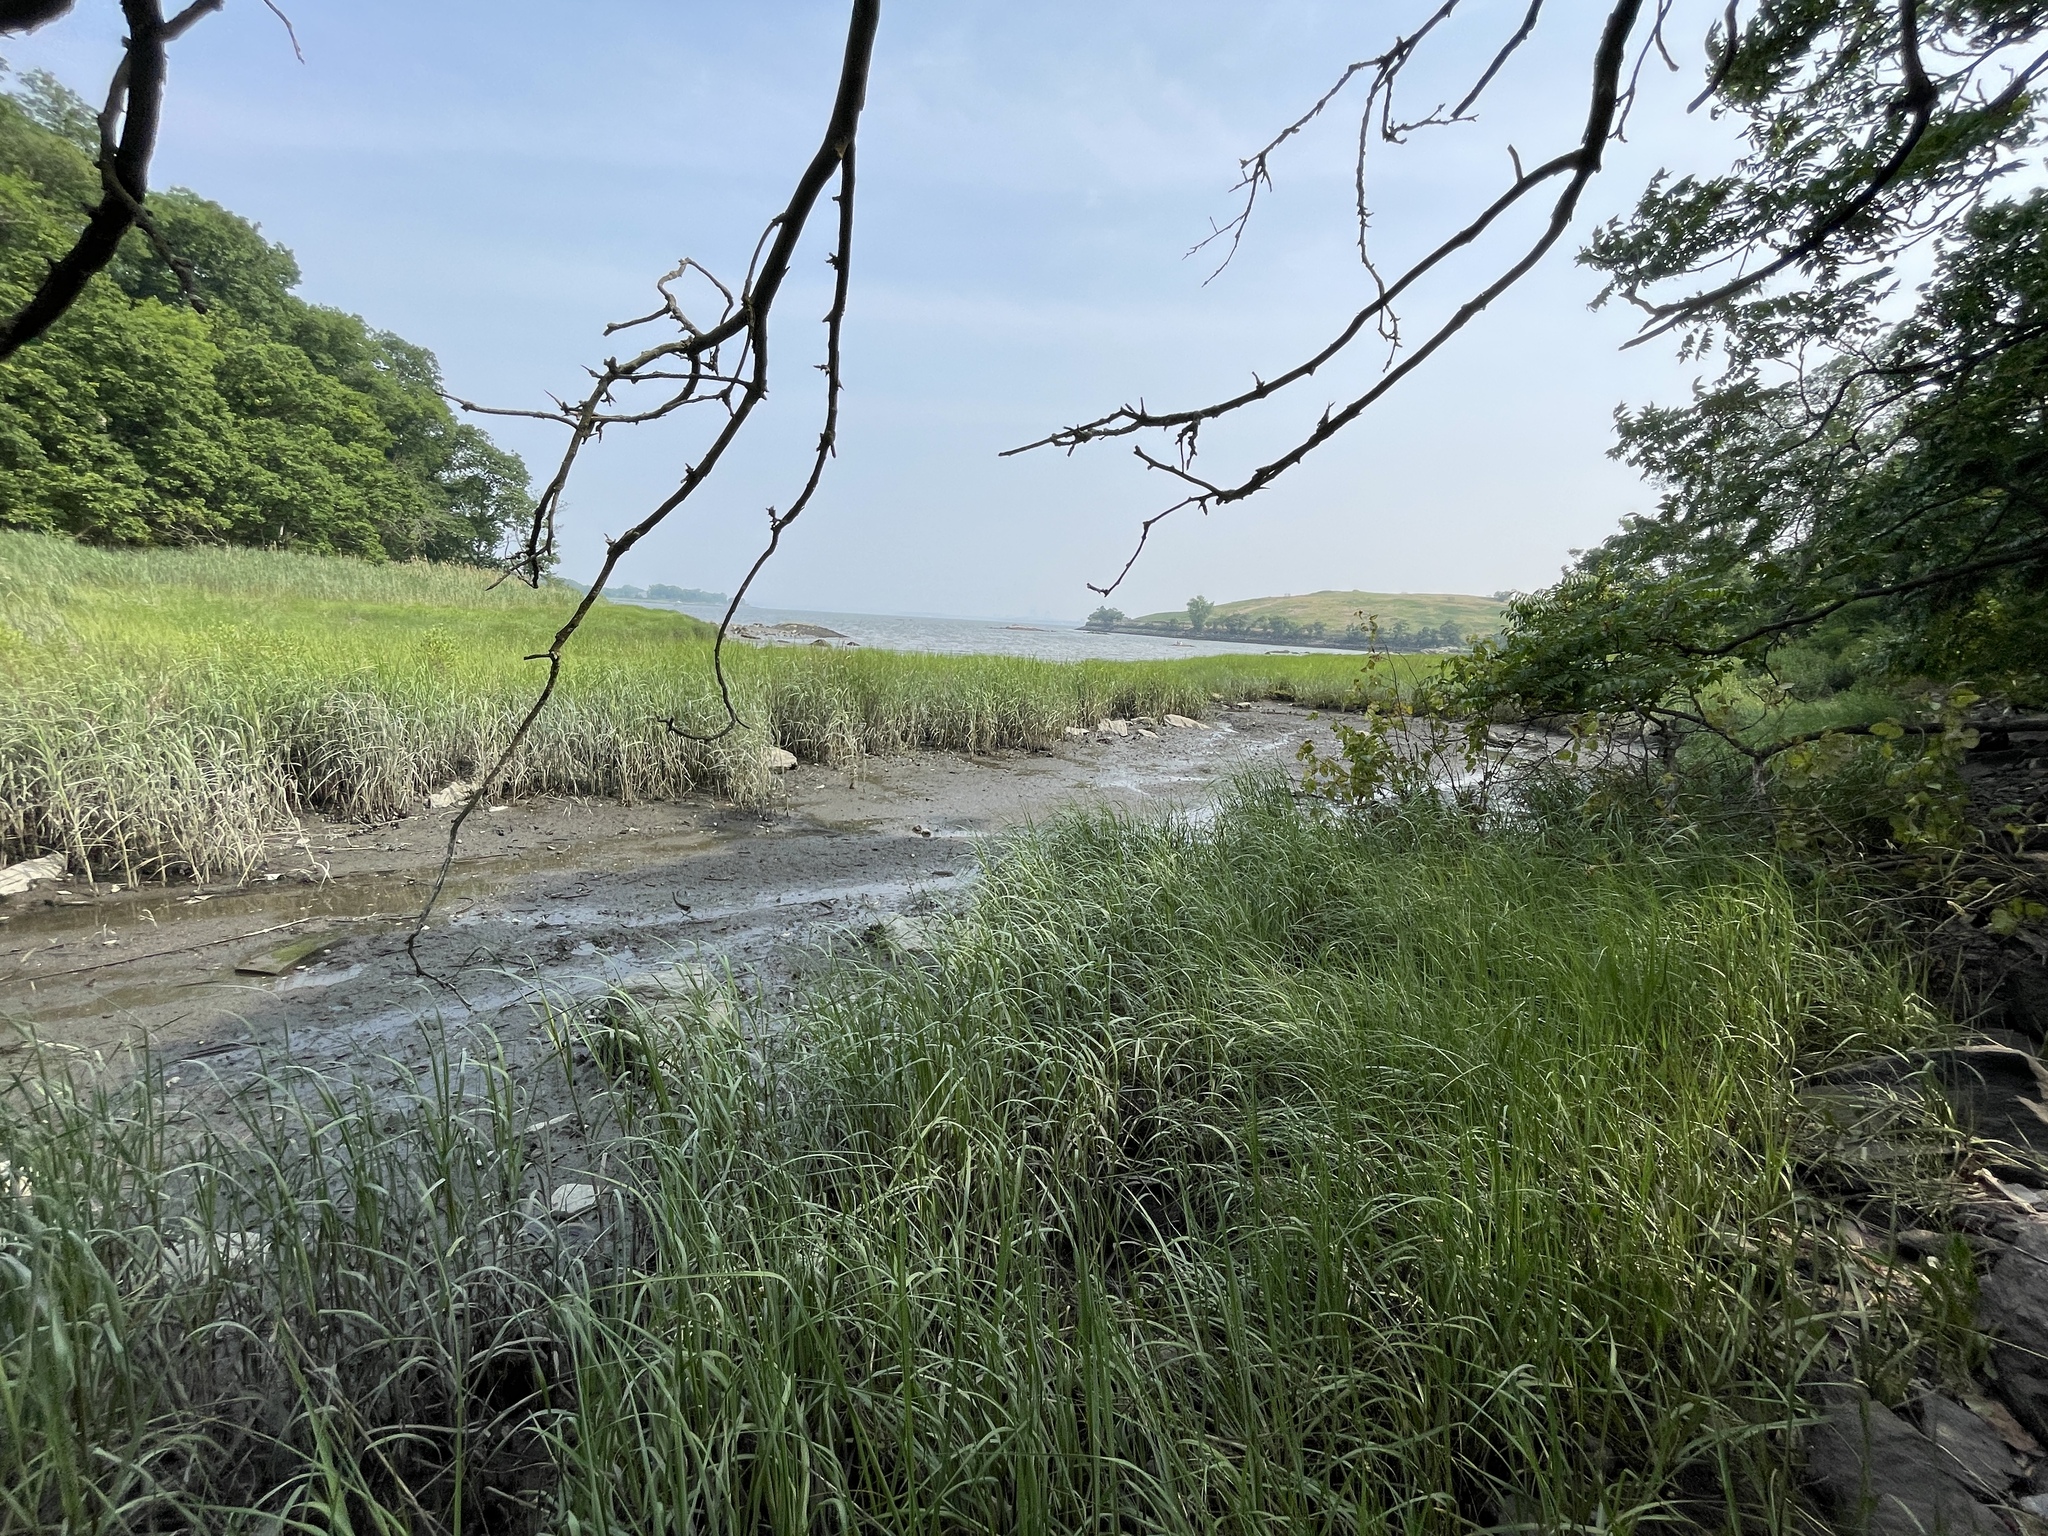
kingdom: Plantae
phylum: Tracheophyta
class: Liliopsida
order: Poales
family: Poaceae
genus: Sporobolus
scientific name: Sporobolus alterniflorus
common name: Atlantic cordgrass
